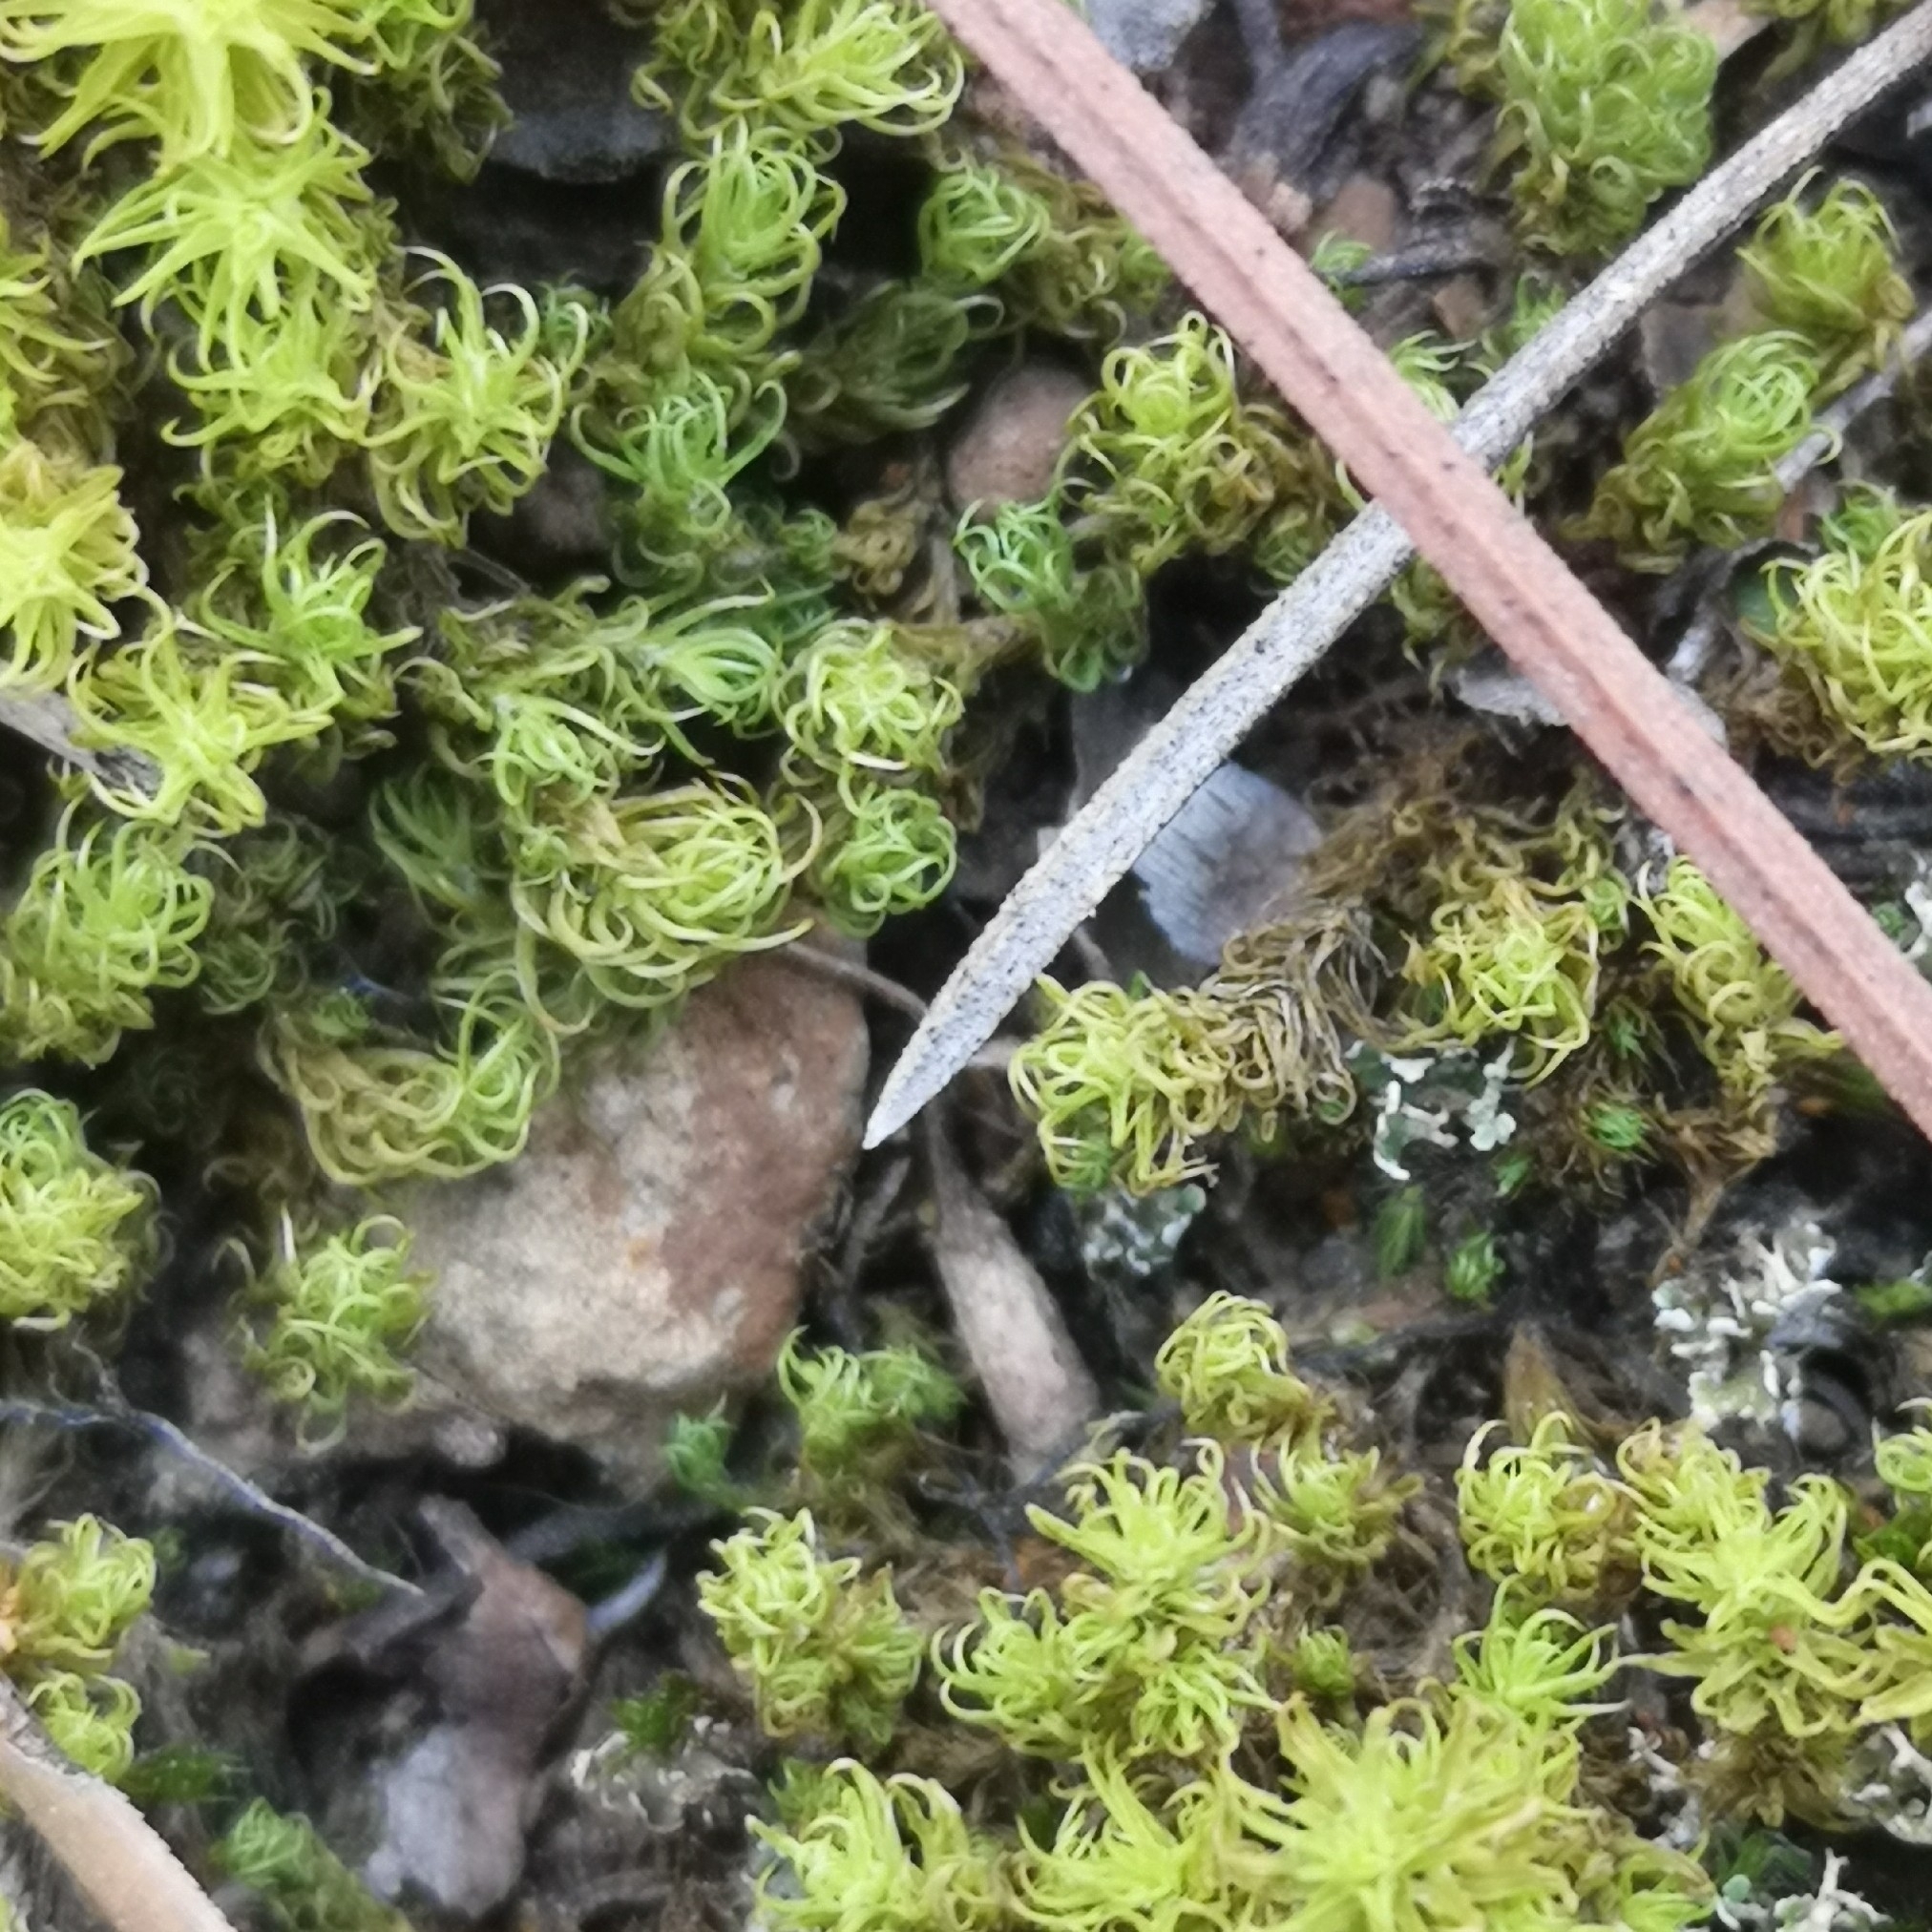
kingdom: Plantae
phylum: Bryophyta
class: Bryopsida
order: Pottiales
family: Pottiaceae
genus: Pleurochaete
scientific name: Pleurochaete squarrosa
